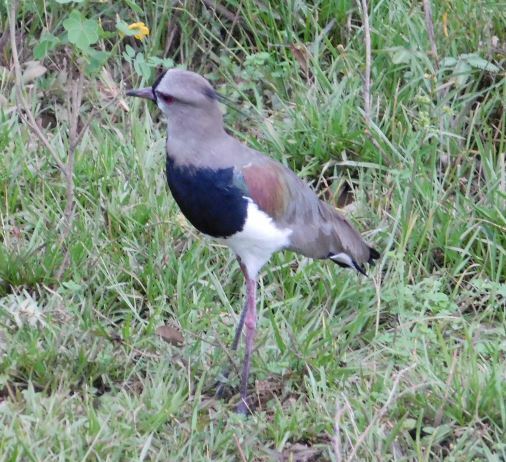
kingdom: Animalia
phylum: Chordata
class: Aves
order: Charadriiformes
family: Charadriidae
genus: Vanellus
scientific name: Vanellus chilensis
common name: Southern lapwing
